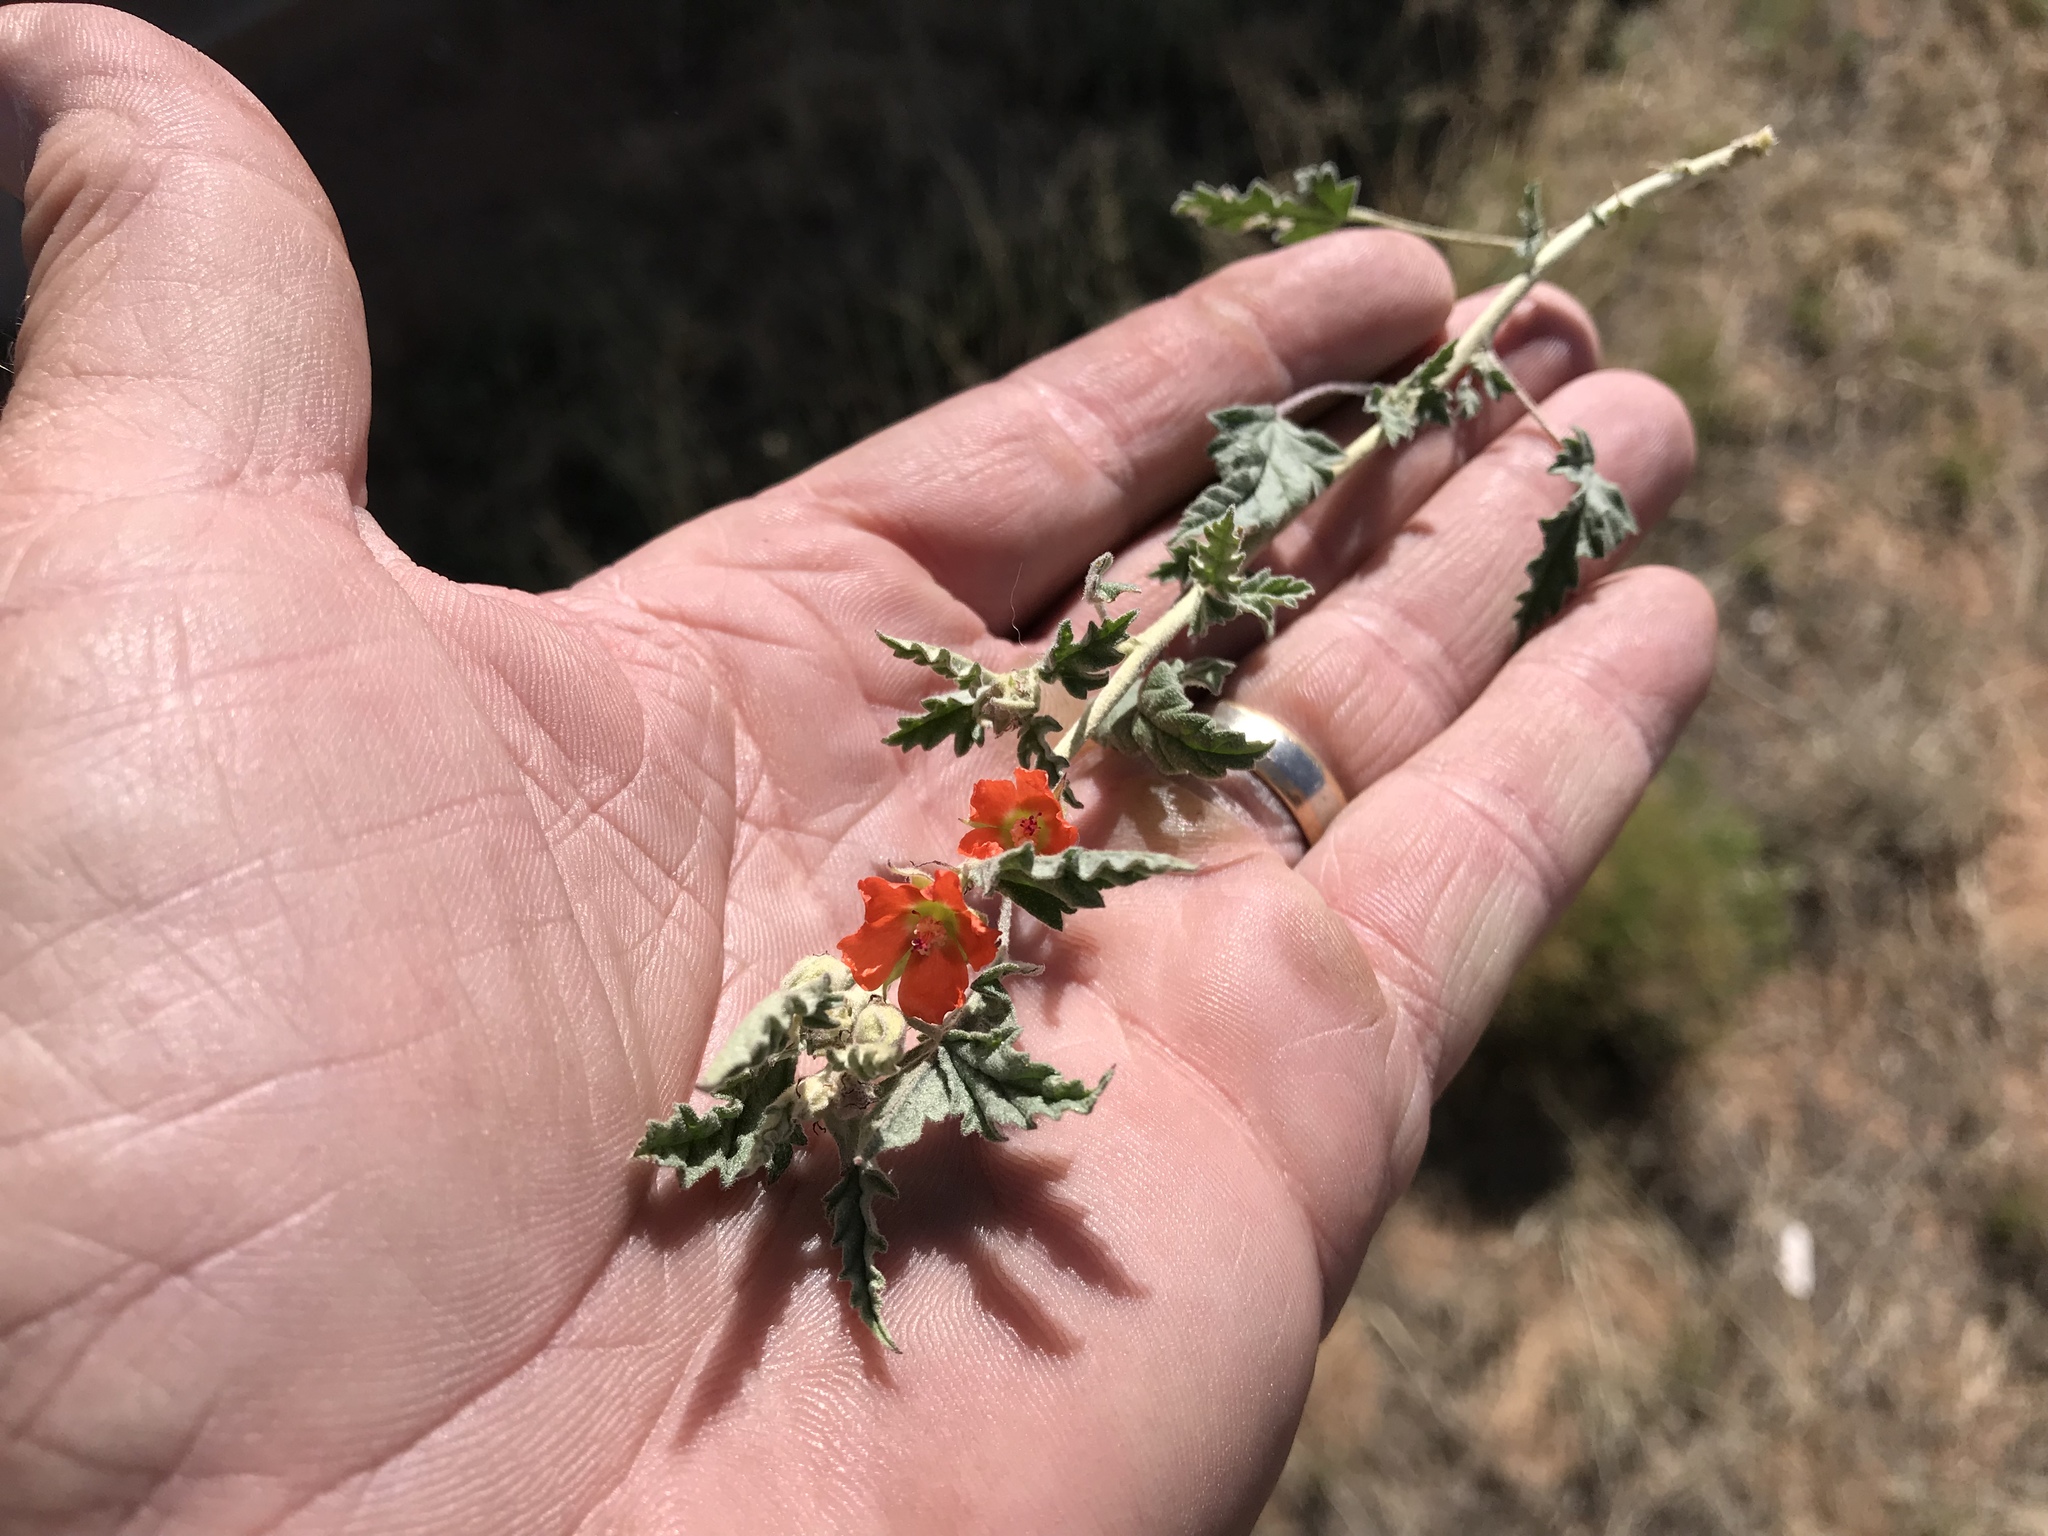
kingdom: Plantae
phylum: Tracheophyta
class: Magnoliopsida
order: Malvales
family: Malvaceae
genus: Sphaeralcea
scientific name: Sphaeralcea hastulata
